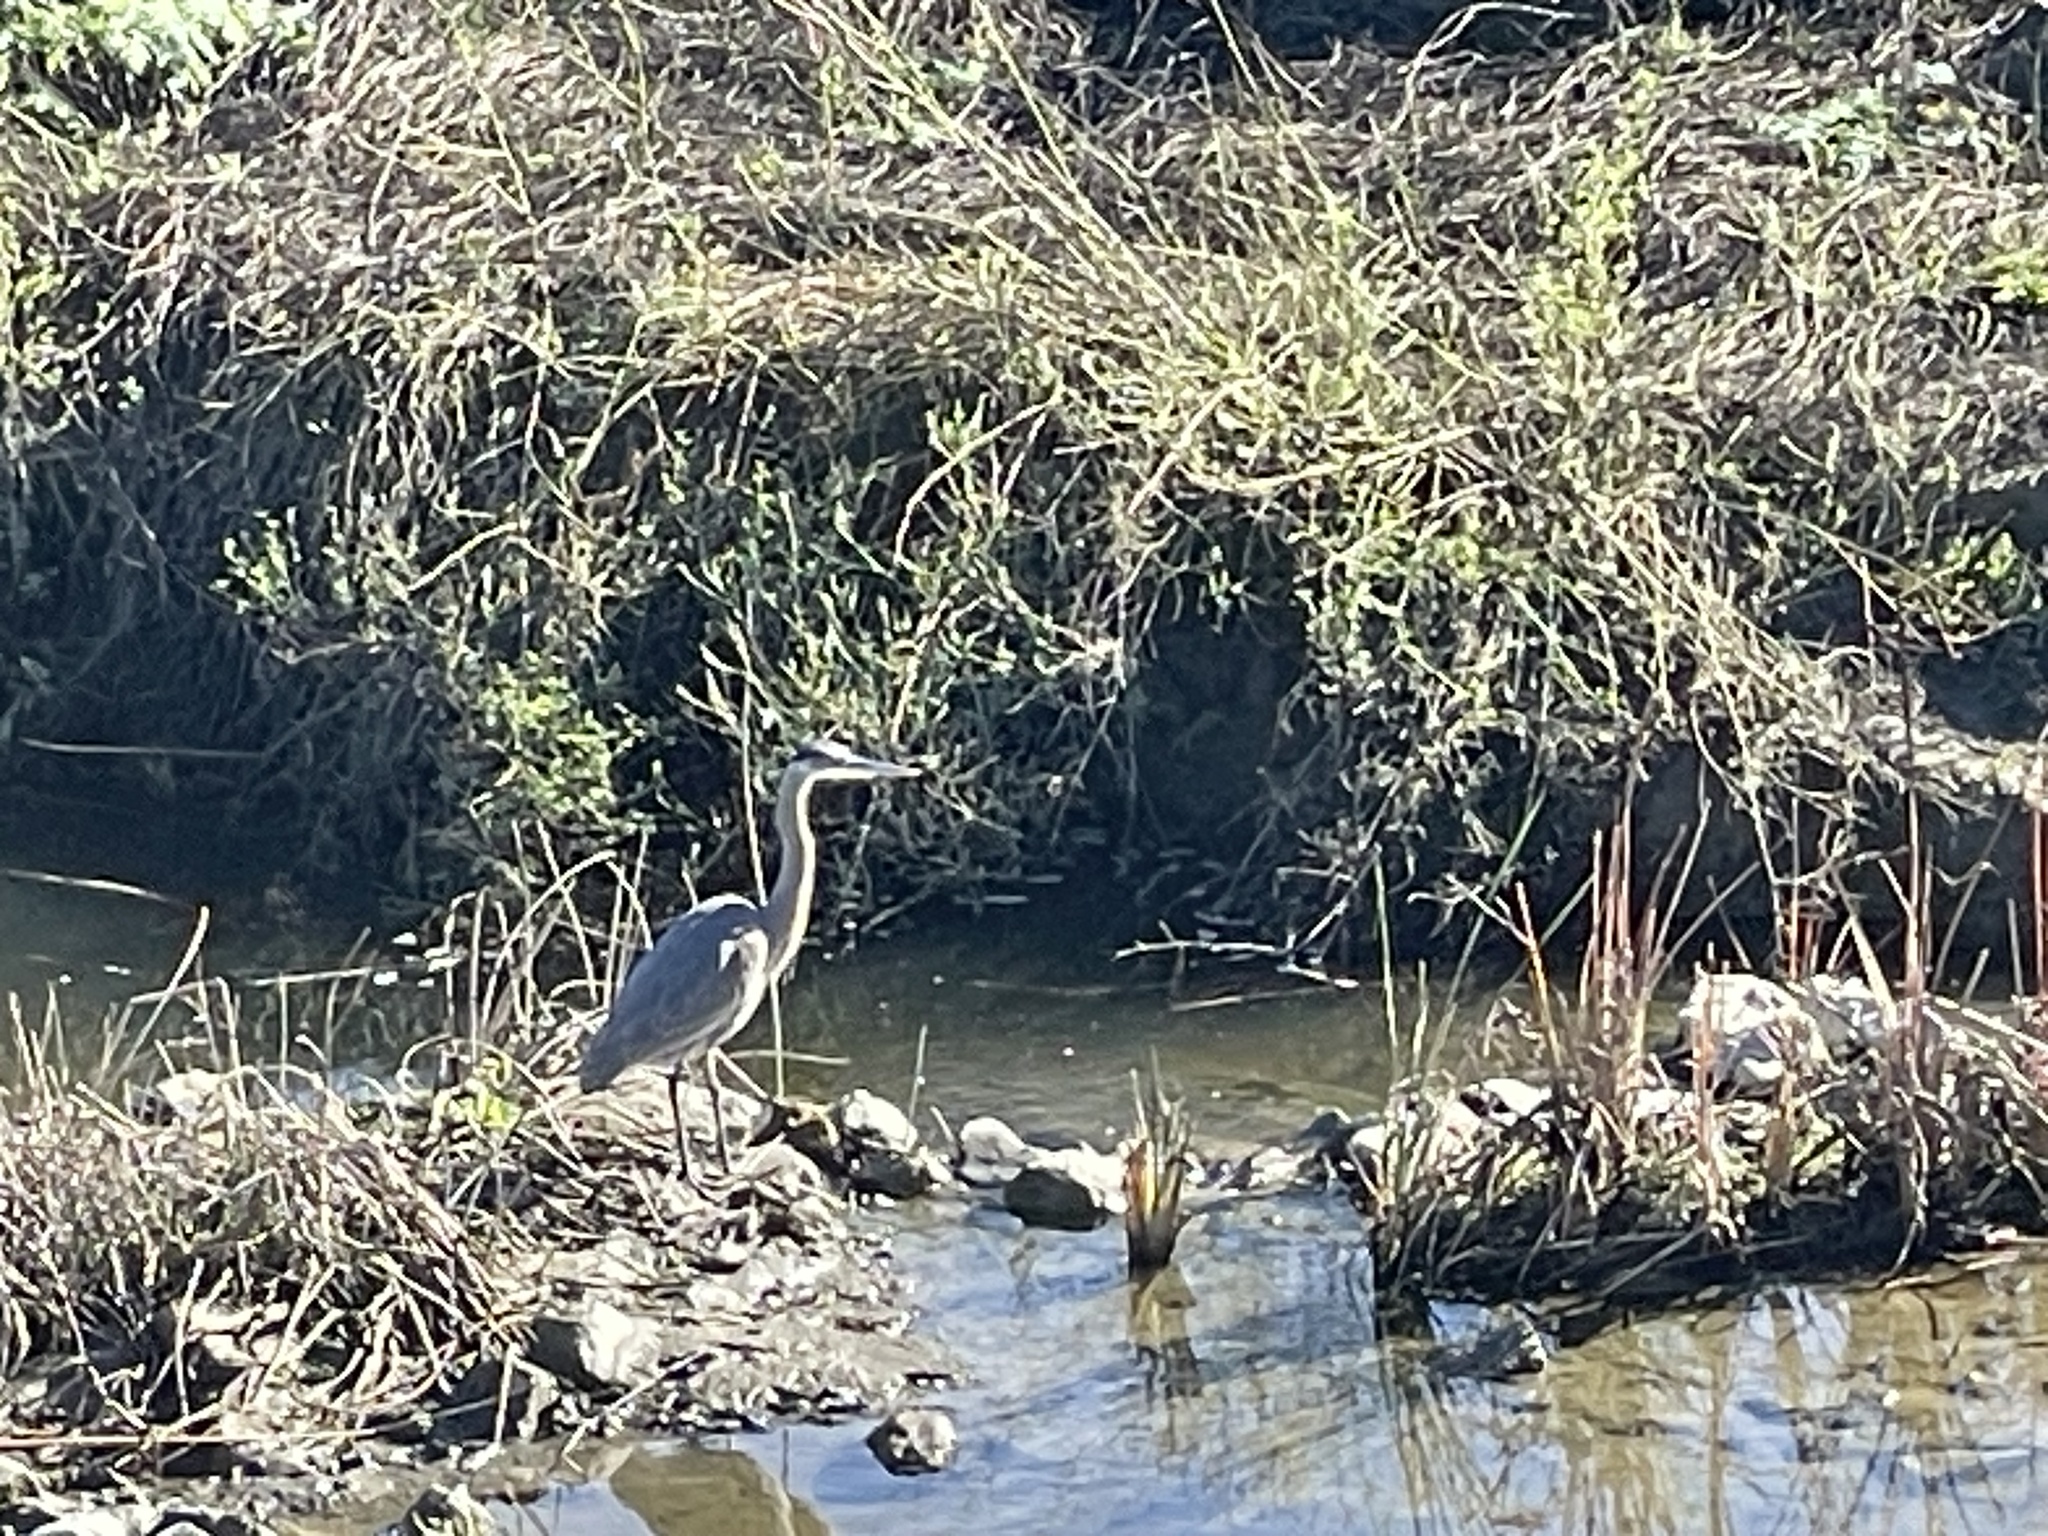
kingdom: Animalia
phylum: Chordata
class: Aves
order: Pelecaniformes
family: Ardeidae
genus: Ardea
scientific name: Ardea herodias
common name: Great blue heron
